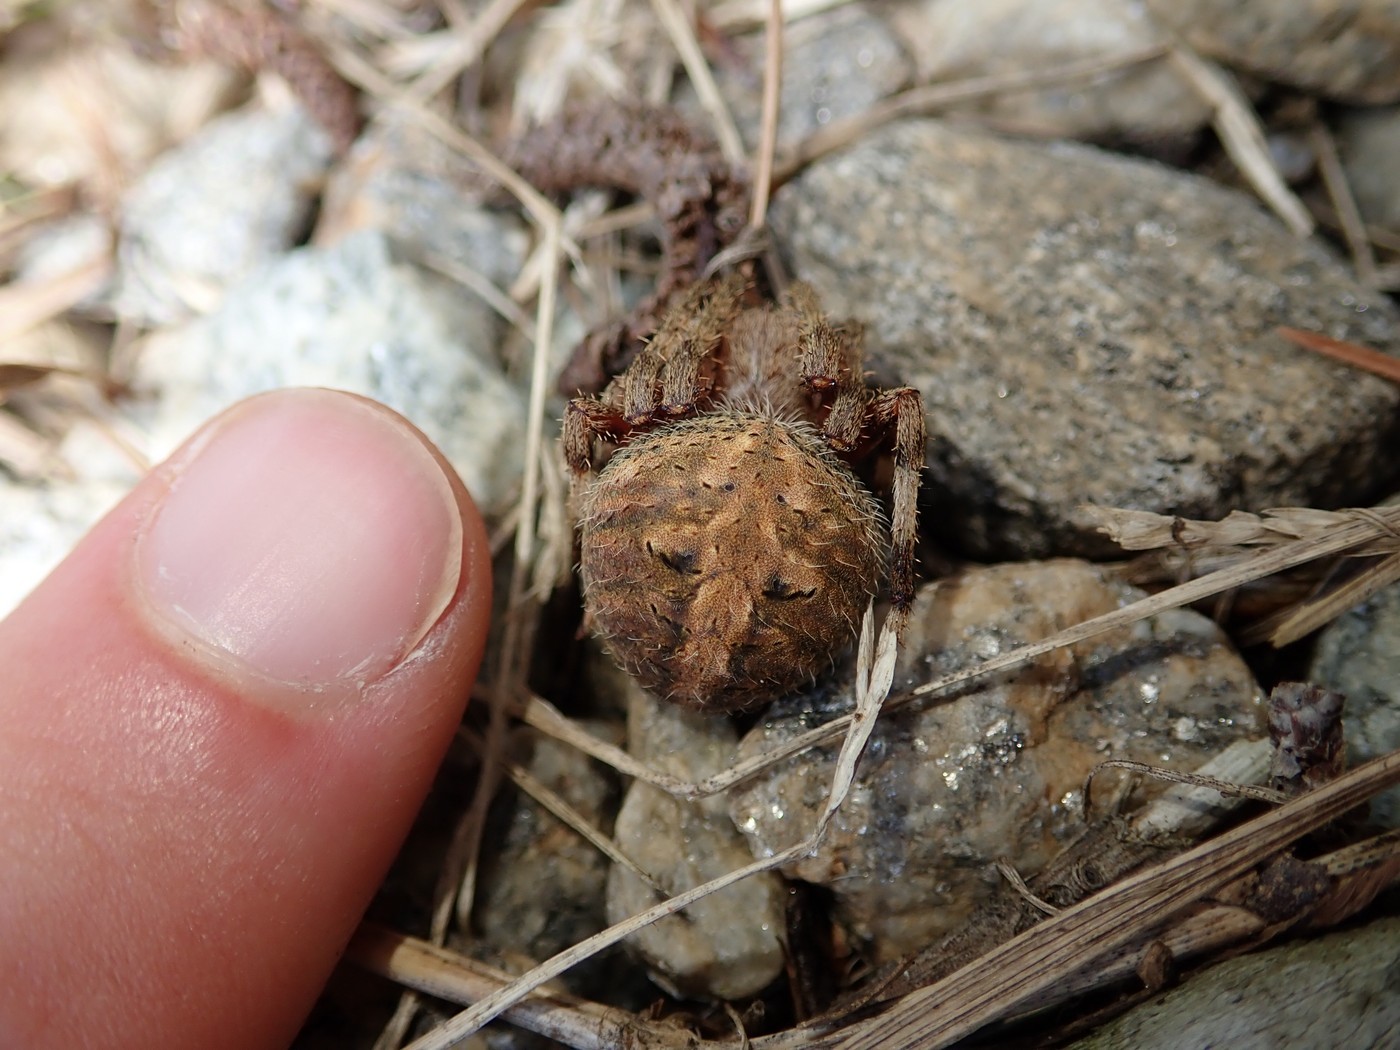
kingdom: Animalia
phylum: Arthropoda
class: Arachnida
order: Araneae
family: Araneidae
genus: Neoscona
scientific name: Neoscona crucifera
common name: Spotted orbweaver
